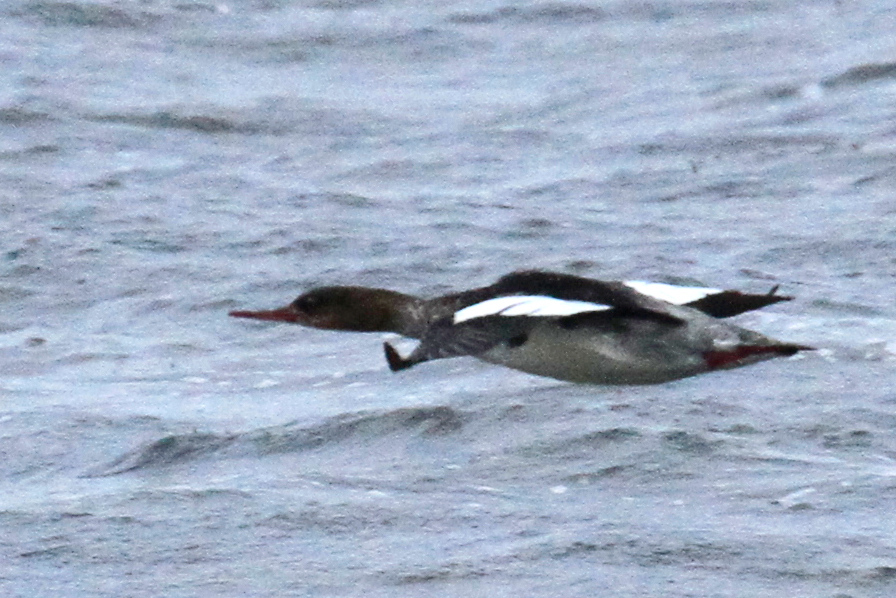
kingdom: Animalia
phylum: Chordata
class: Aves
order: Anseriformes
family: Anatidae
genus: Mergus
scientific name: Mergus serrator
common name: Red-breasted merganser
